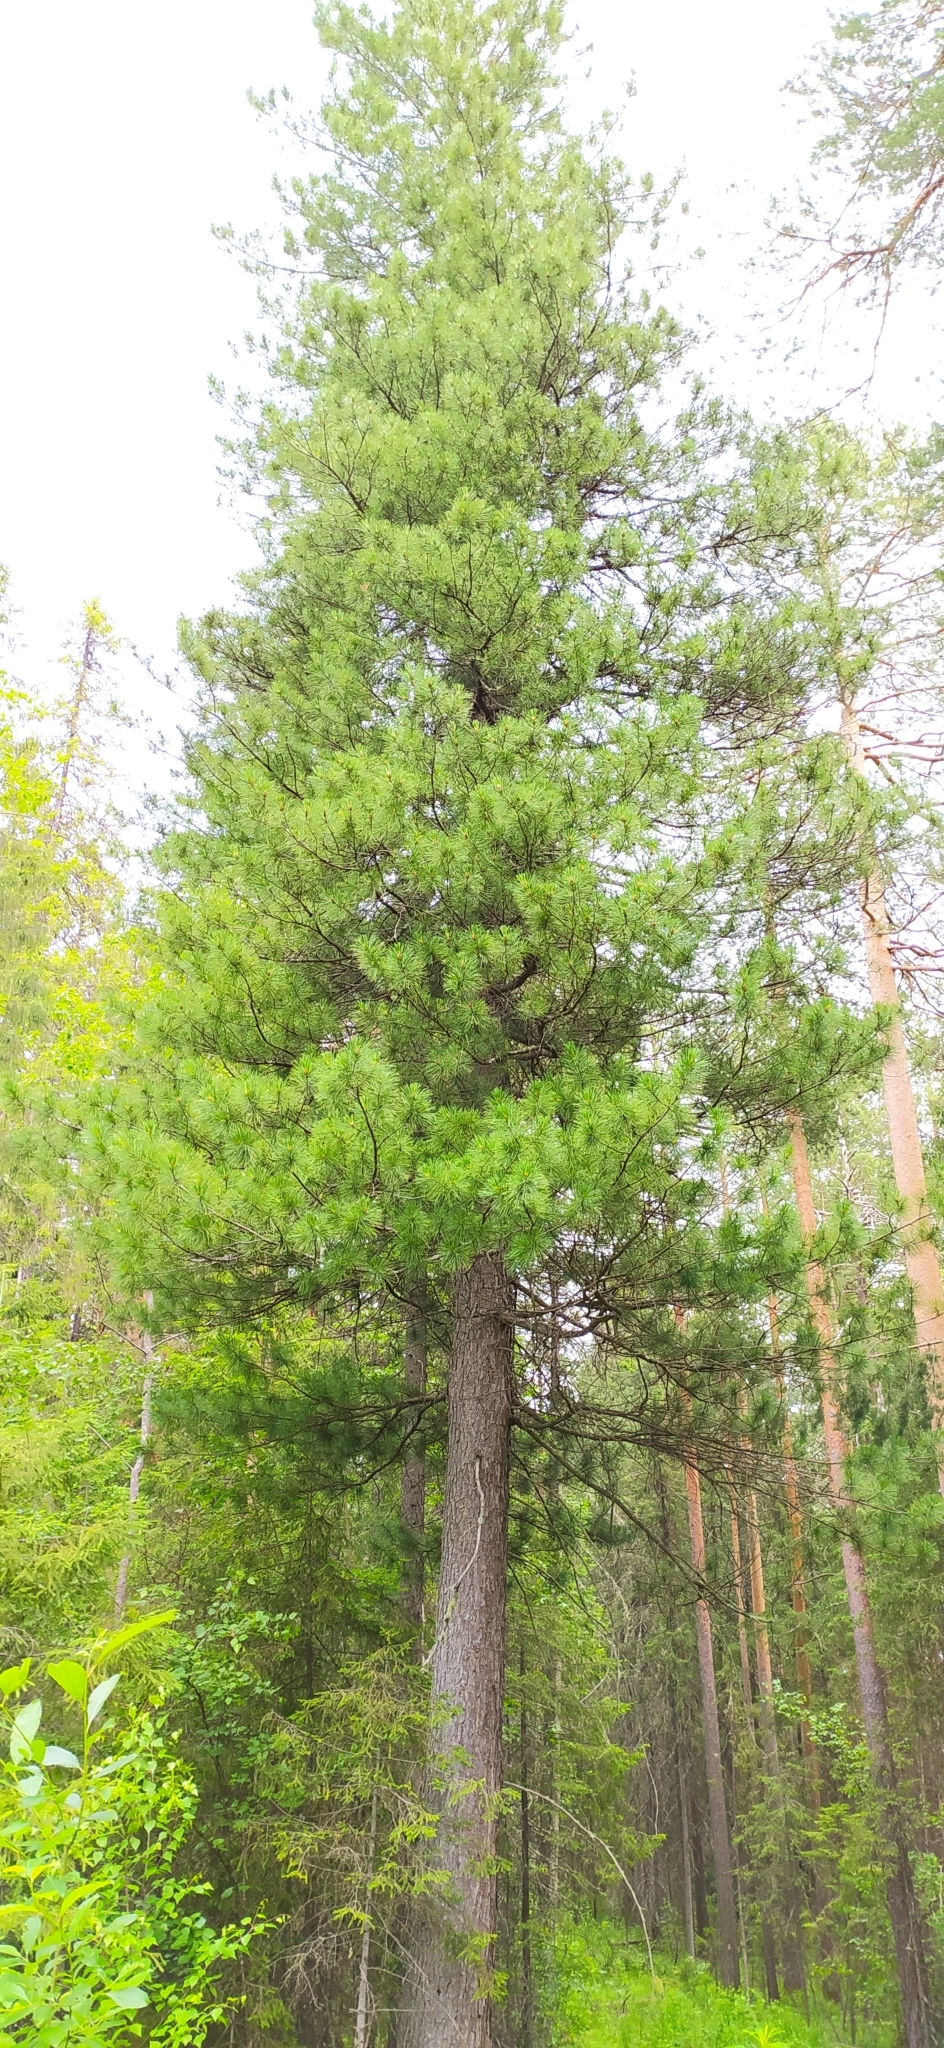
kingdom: Plantae
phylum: Tracheophyta
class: Pinopsida
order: Pinales
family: Pinaceae
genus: Pinus
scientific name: Pinus sibirica
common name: Siberian pine
